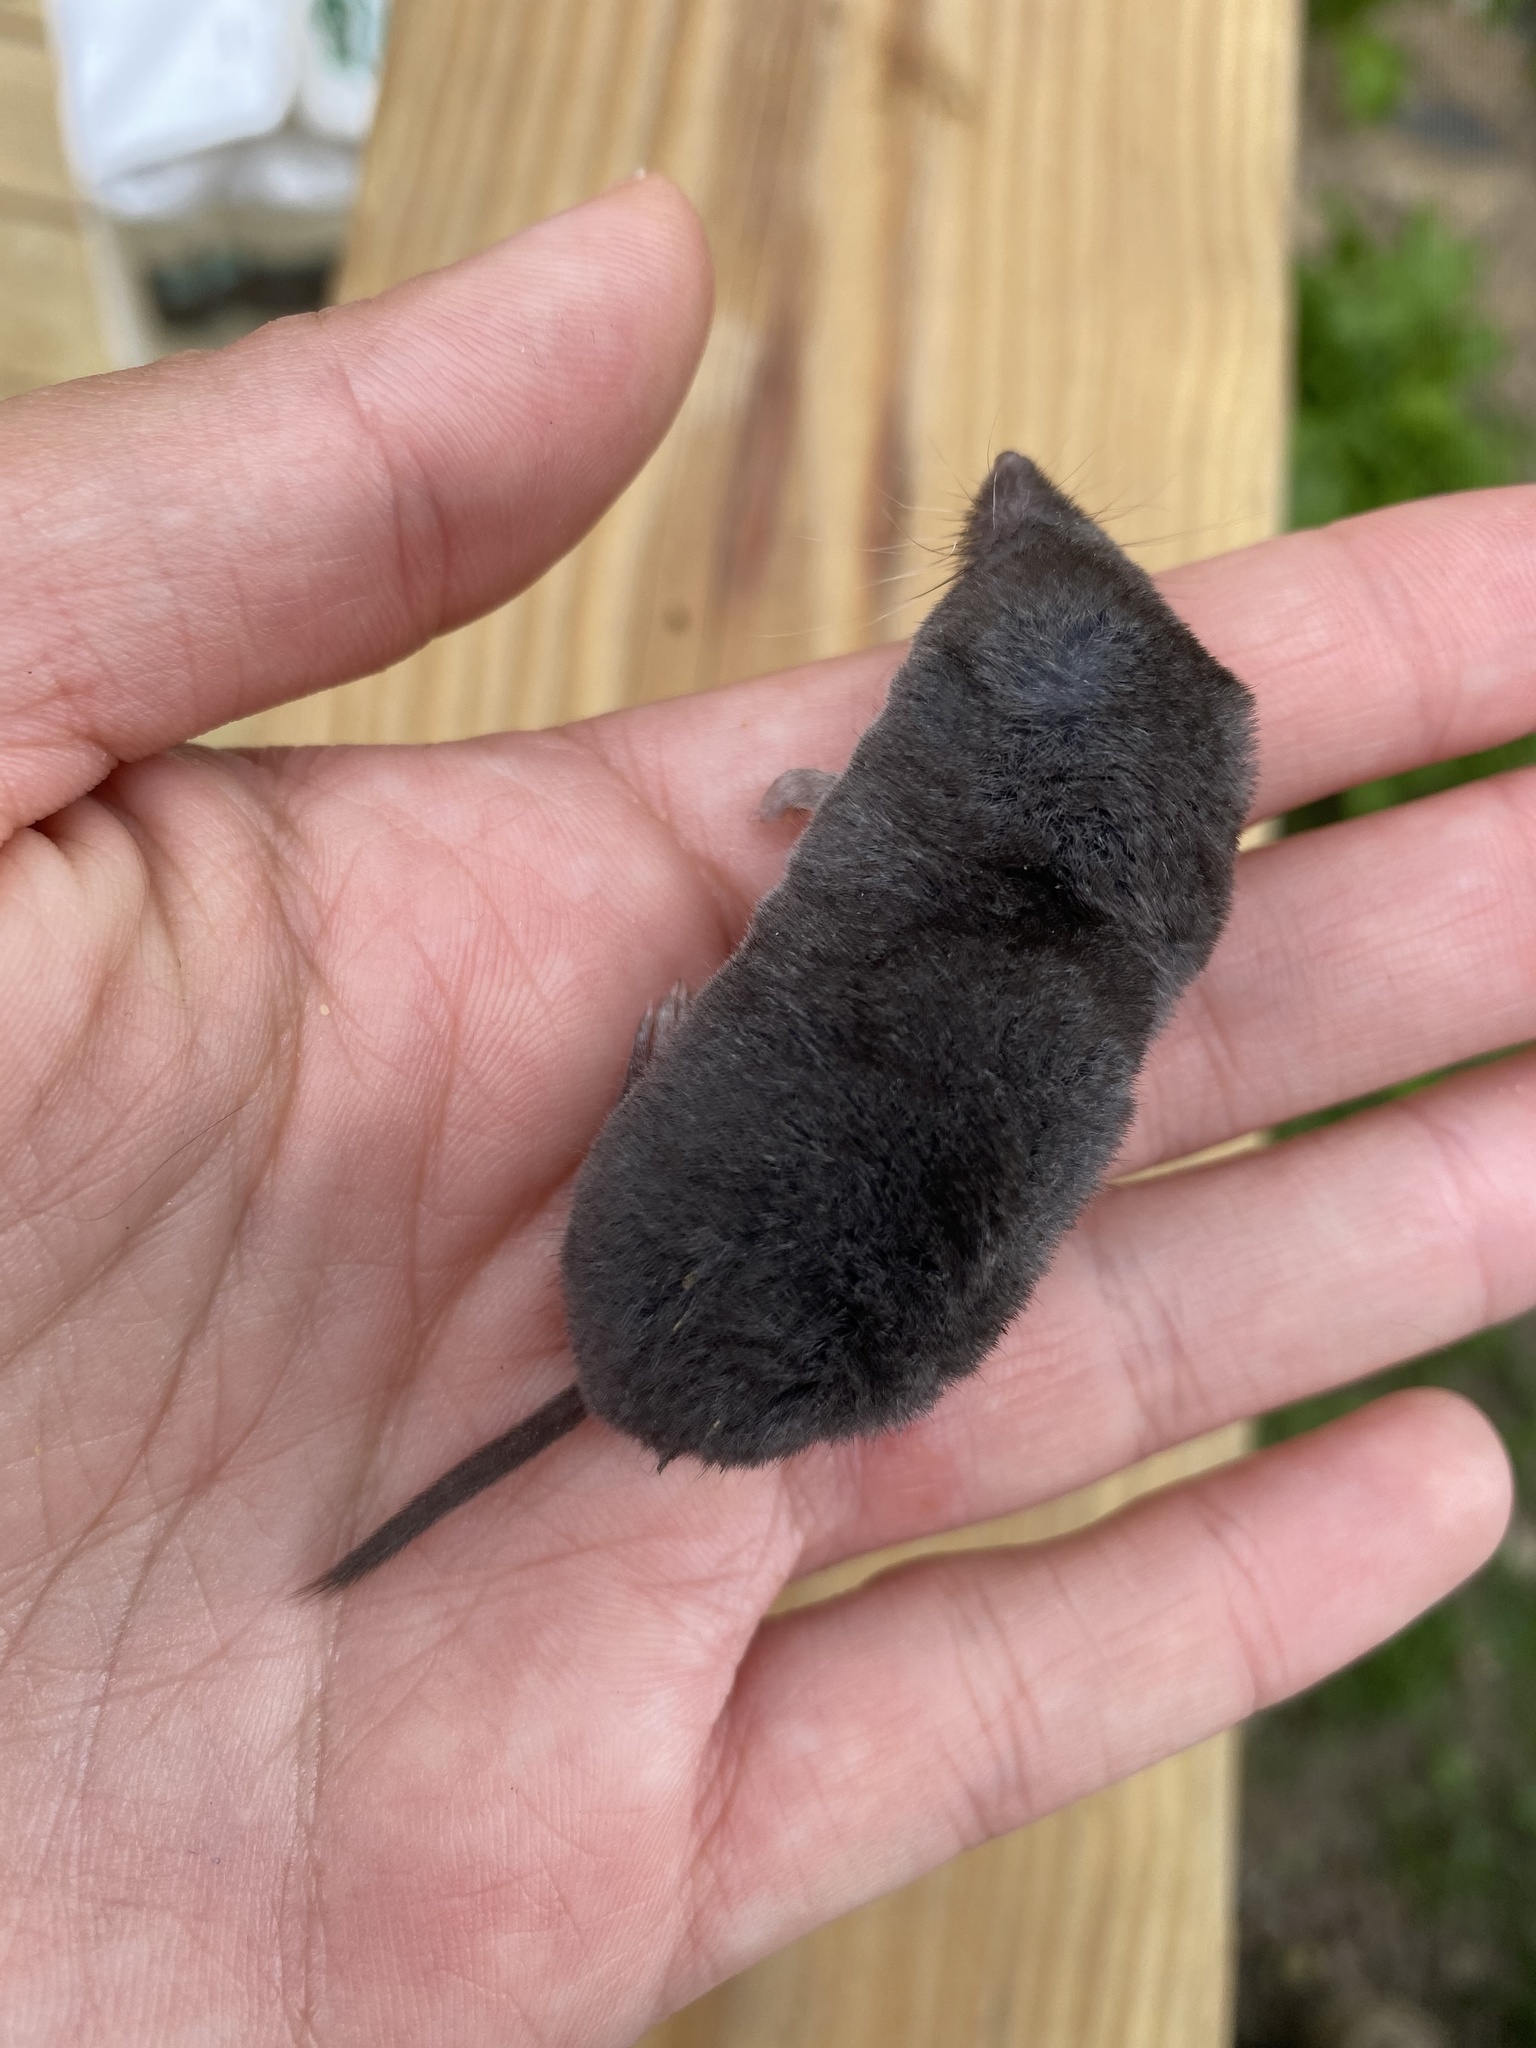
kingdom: Animalia
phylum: Chordata
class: Mammalia
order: Soricomorpha
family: Soricidae
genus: Blarina
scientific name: Blarina brevicauda
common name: Northern short-tailed shrew
